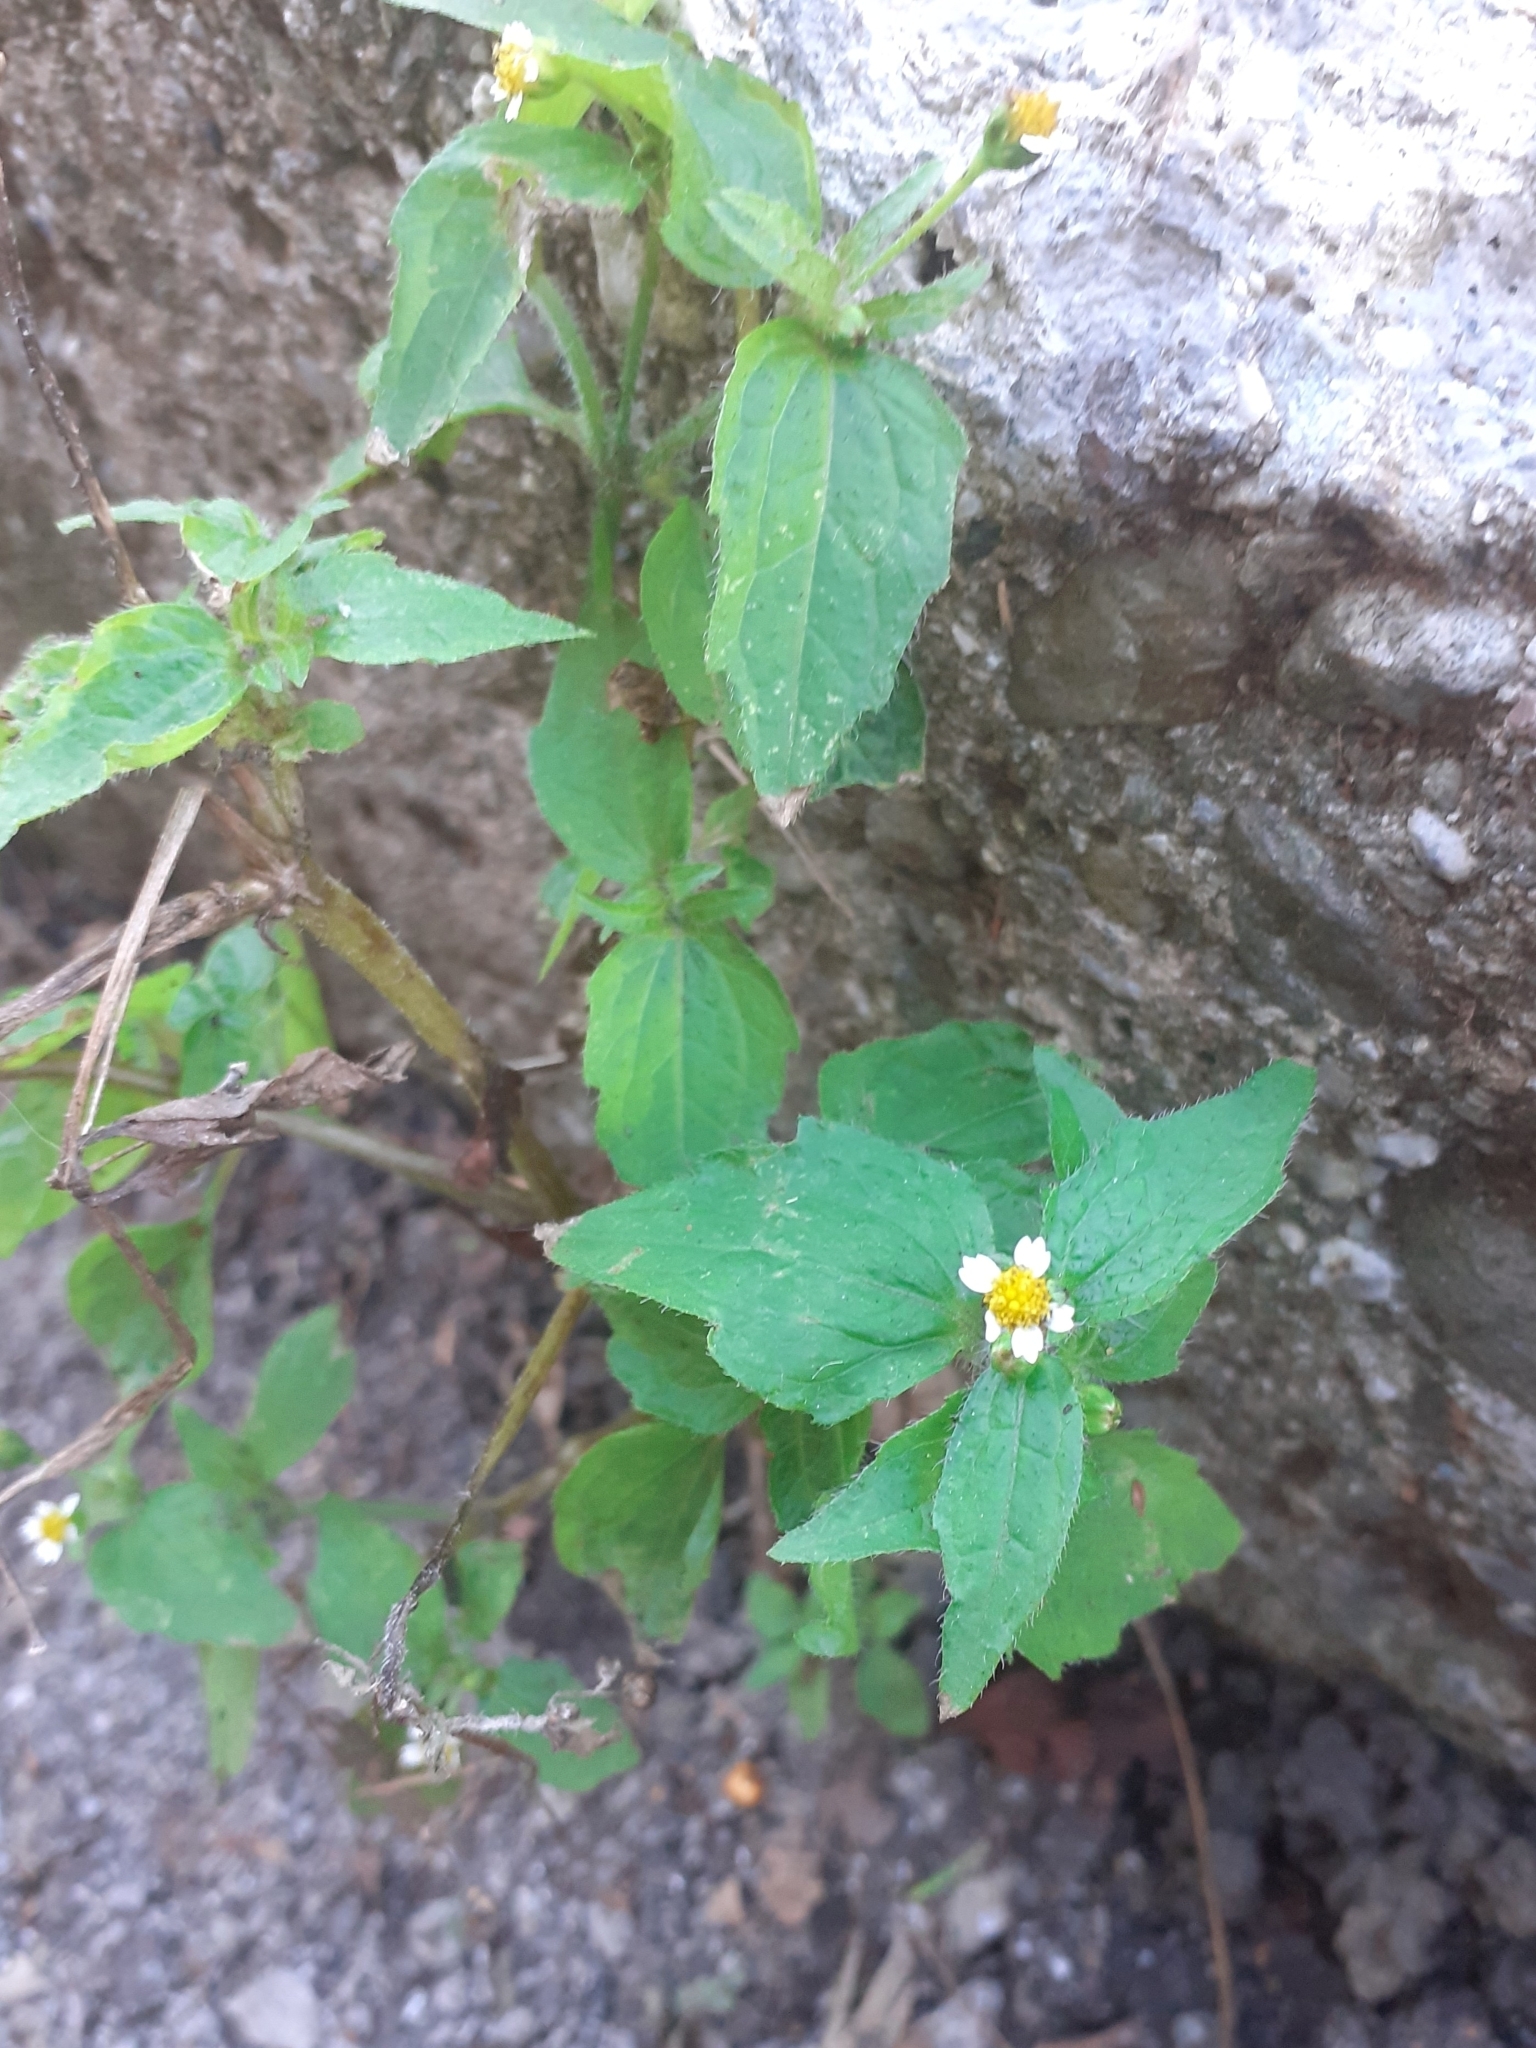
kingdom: Plantae
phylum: Tracheophyta
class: Magnoliopsida
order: Asterales
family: Asteraceae
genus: Galinsoga
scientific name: Galinsoga quadriradiata
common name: Shaggy soldier
